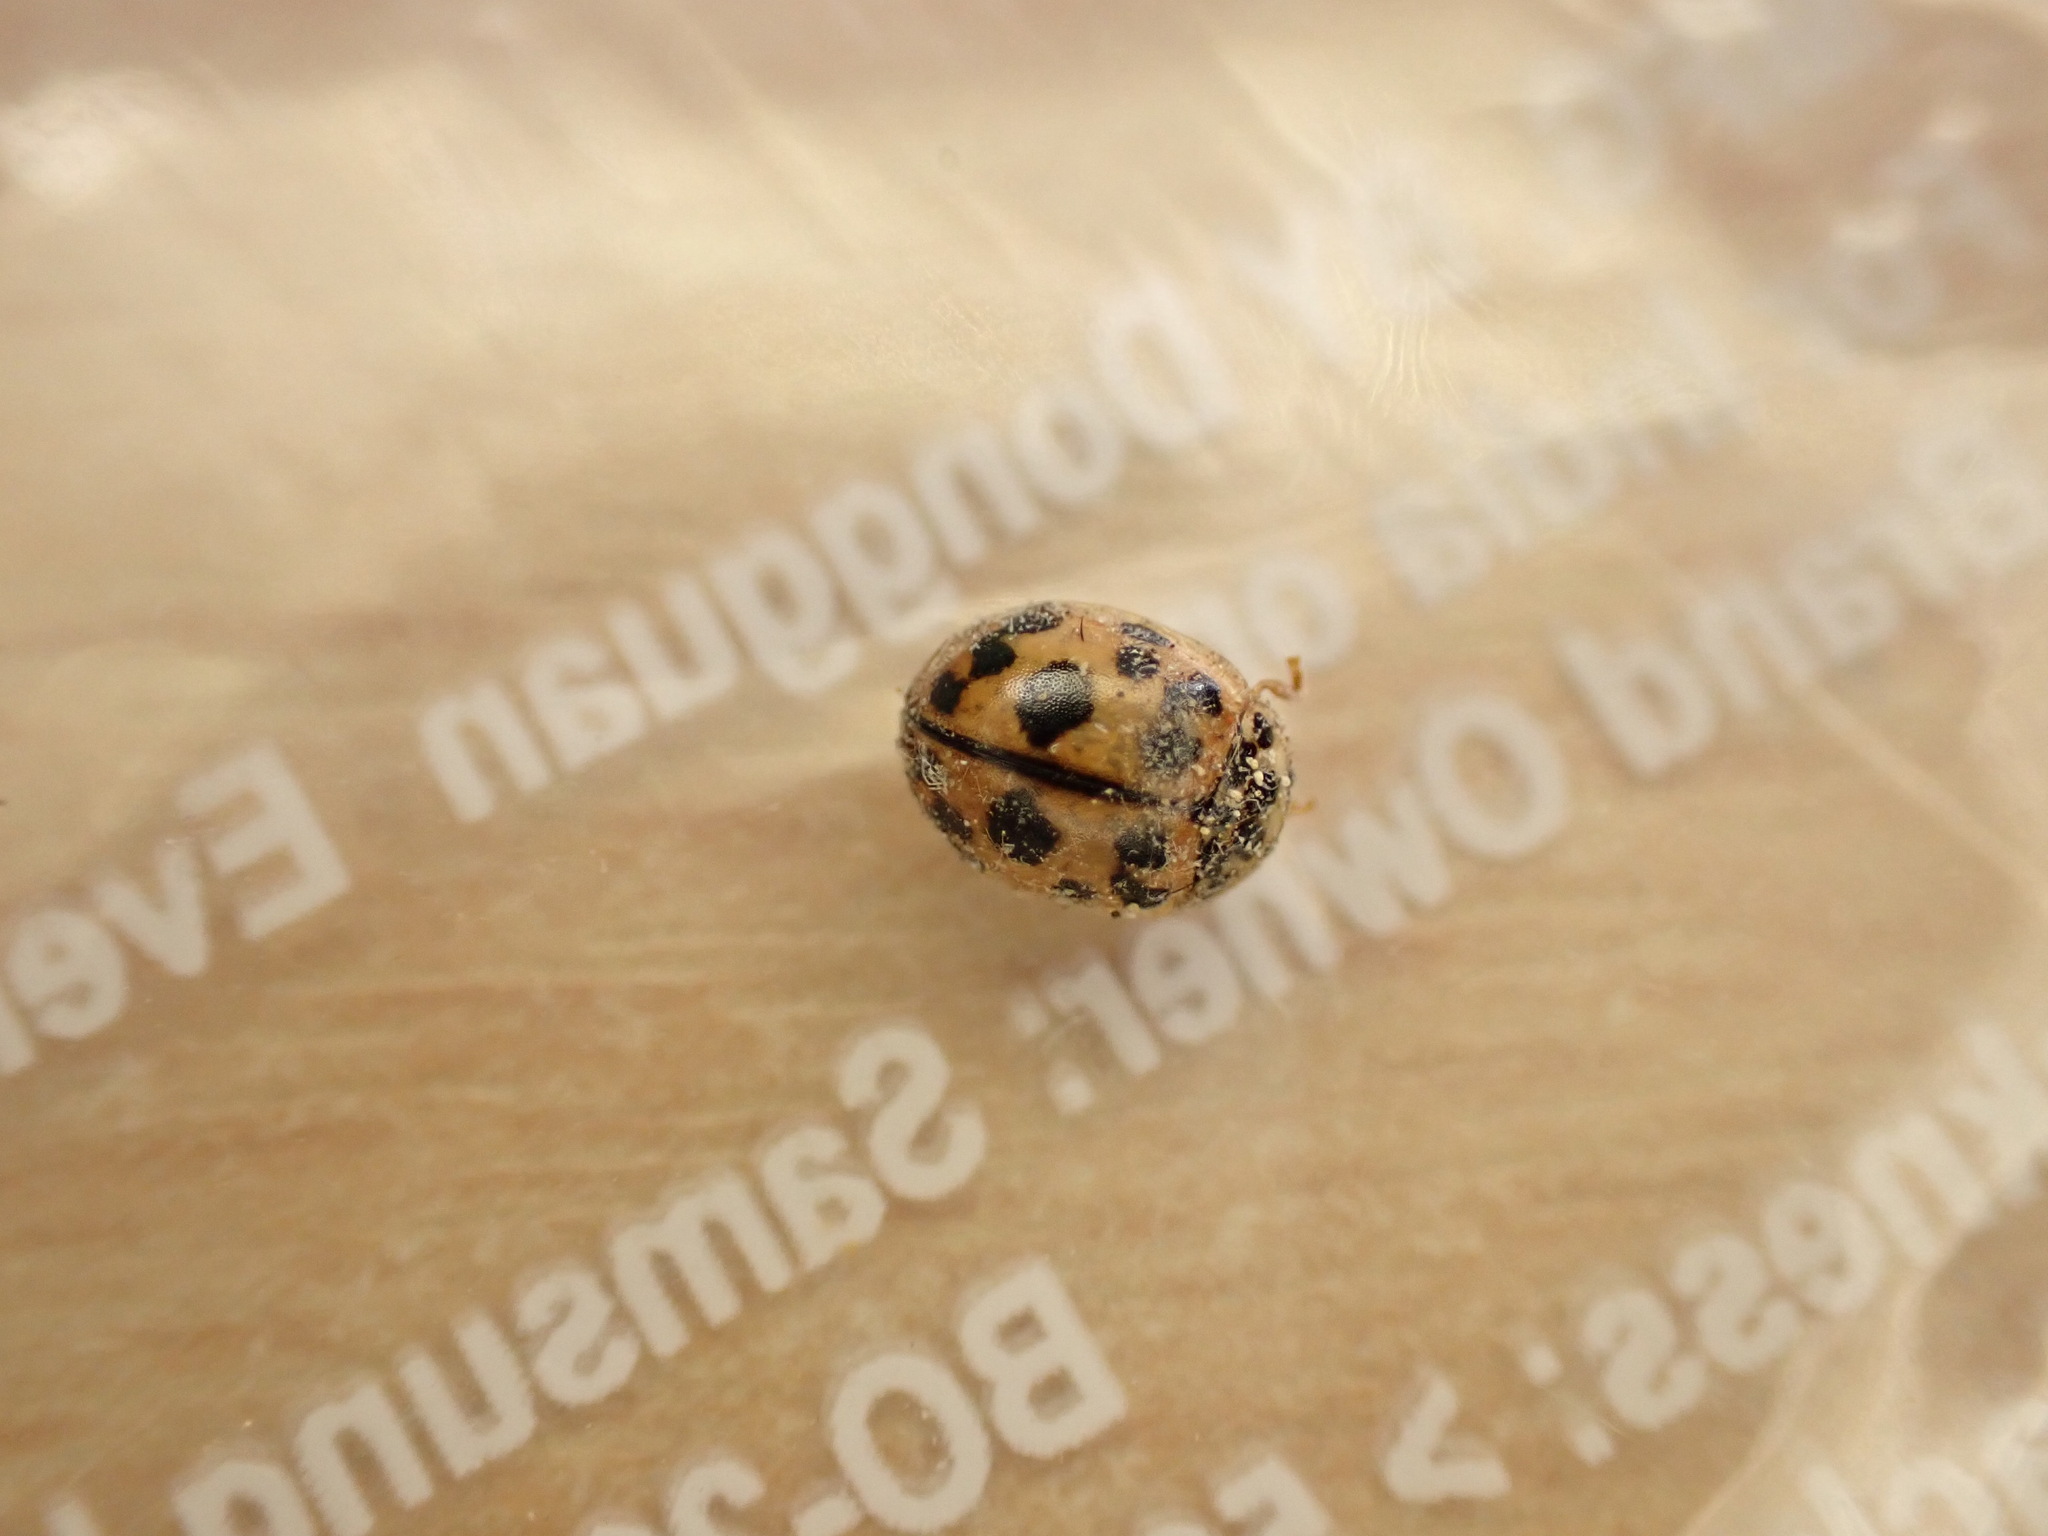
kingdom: Animalia
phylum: Arthropoda
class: Insecta
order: Coleoptera
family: Coccinellidae
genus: Oenopia
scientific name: Oenopia conglobata
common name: Ladybird beetle
